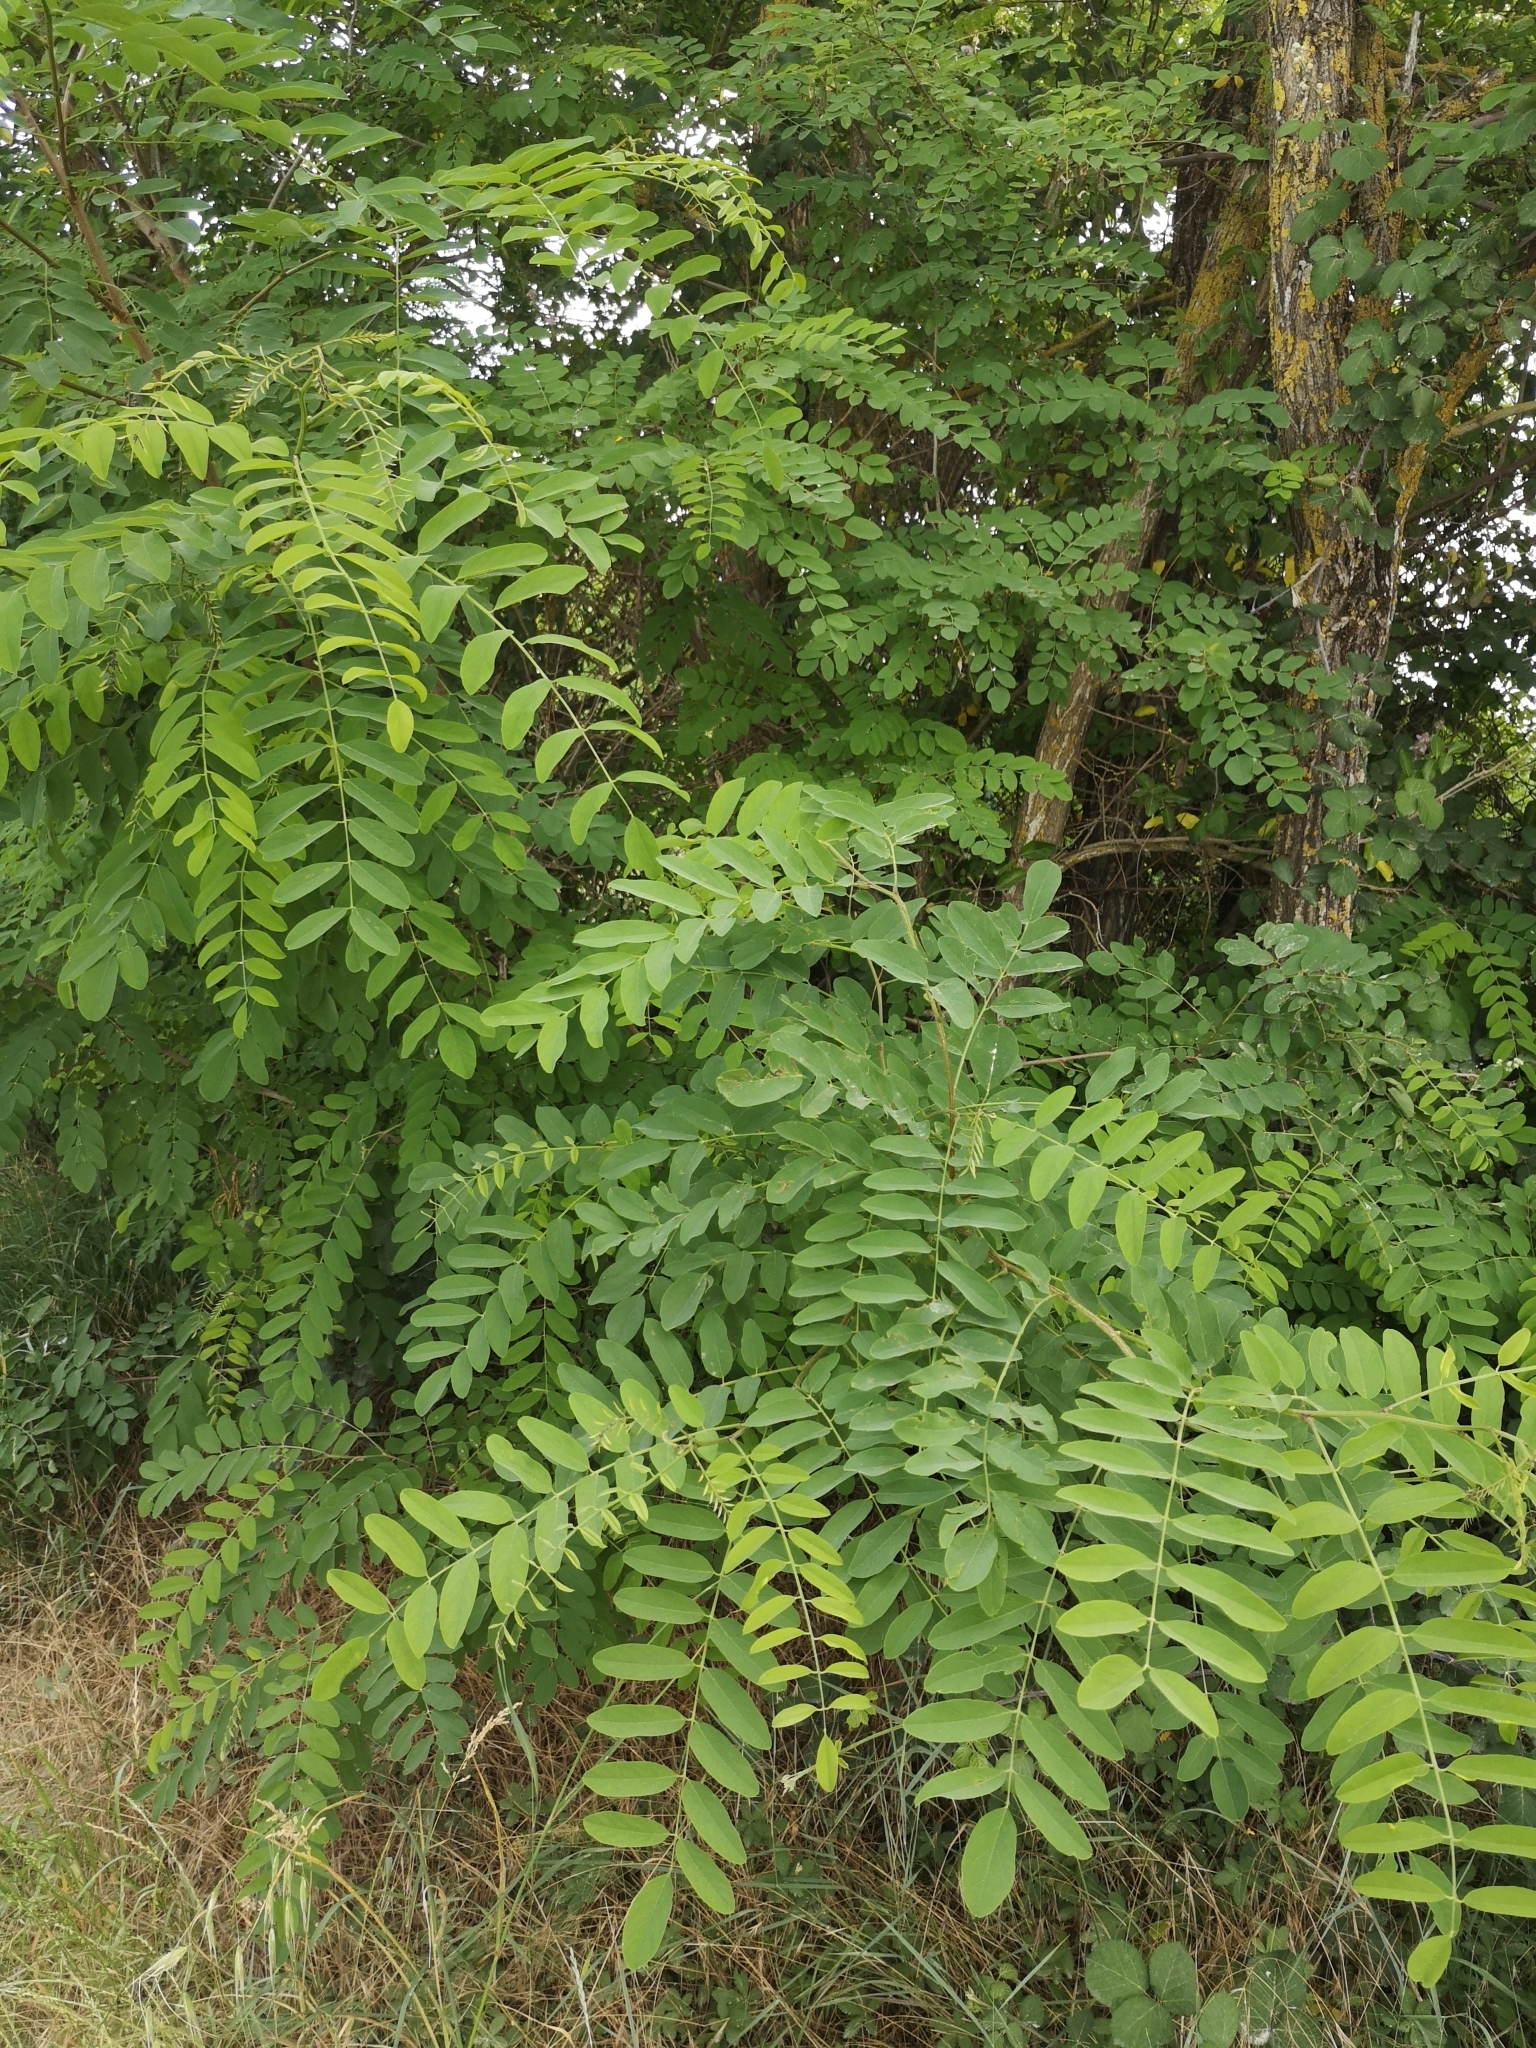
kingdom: Plantae
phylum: Tracheophyta
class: Magnoliopsida
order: Fabales
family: Fabaceae
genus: Robinia
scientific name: Robinia pseudoacacia
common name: Black locust
